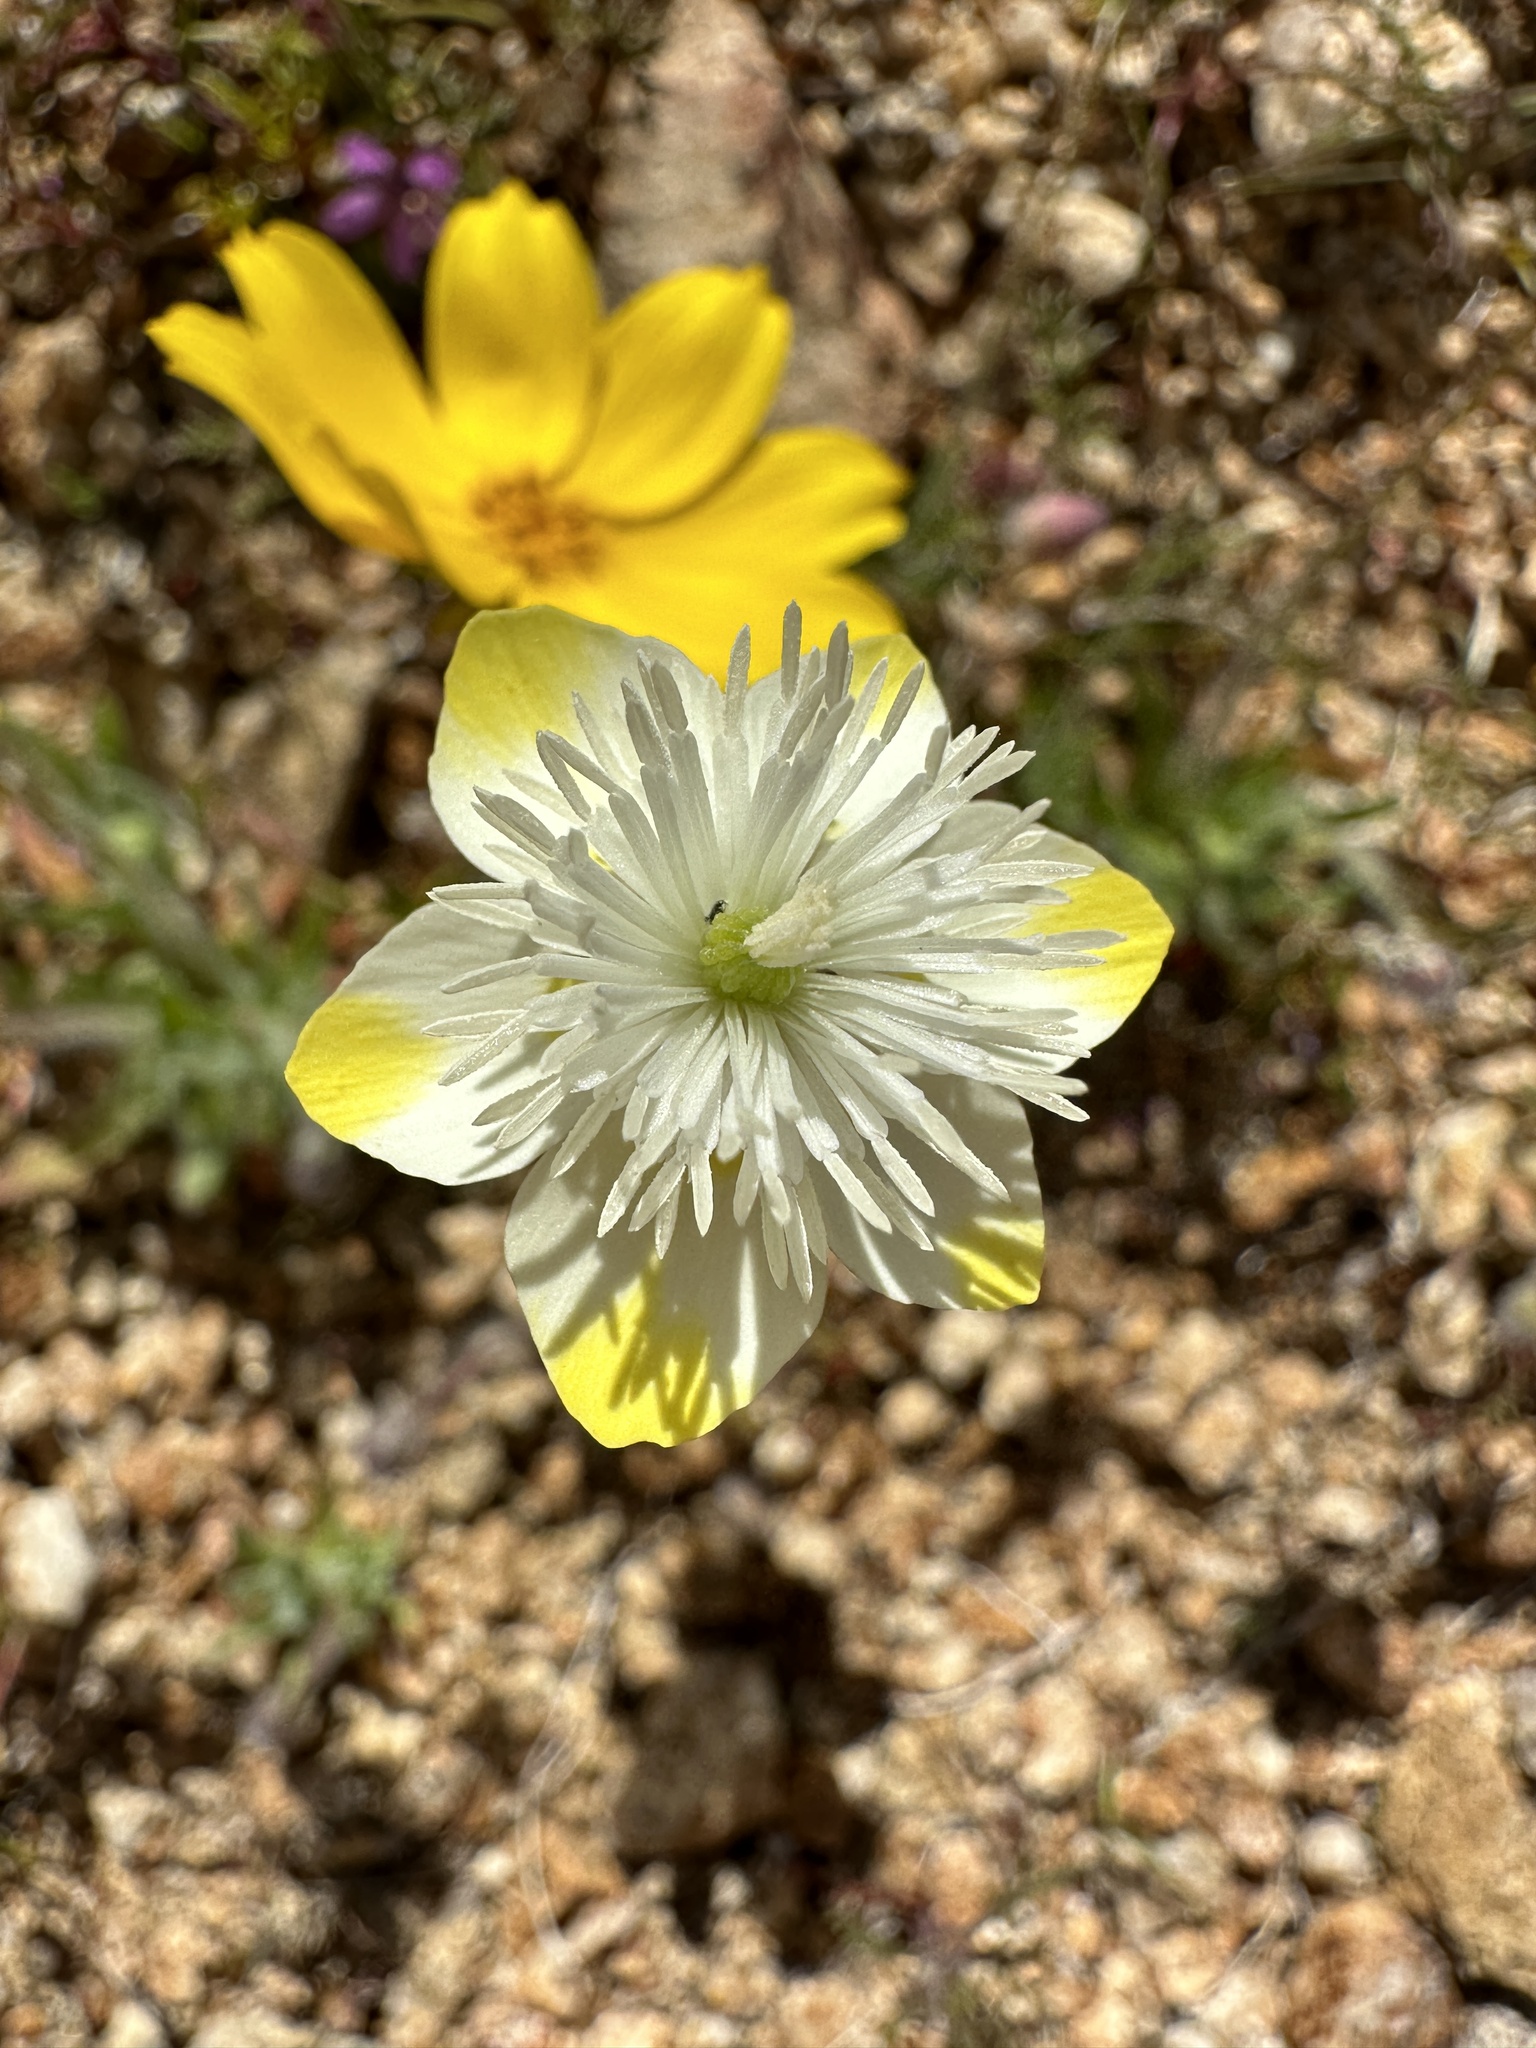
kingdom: Plantae
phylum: Tracheophyta
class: Magnoliopsida
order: Ranunculales
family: Papaveraceae
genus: Platystemon
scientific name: Platystemon californicus
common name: Cream-cups
